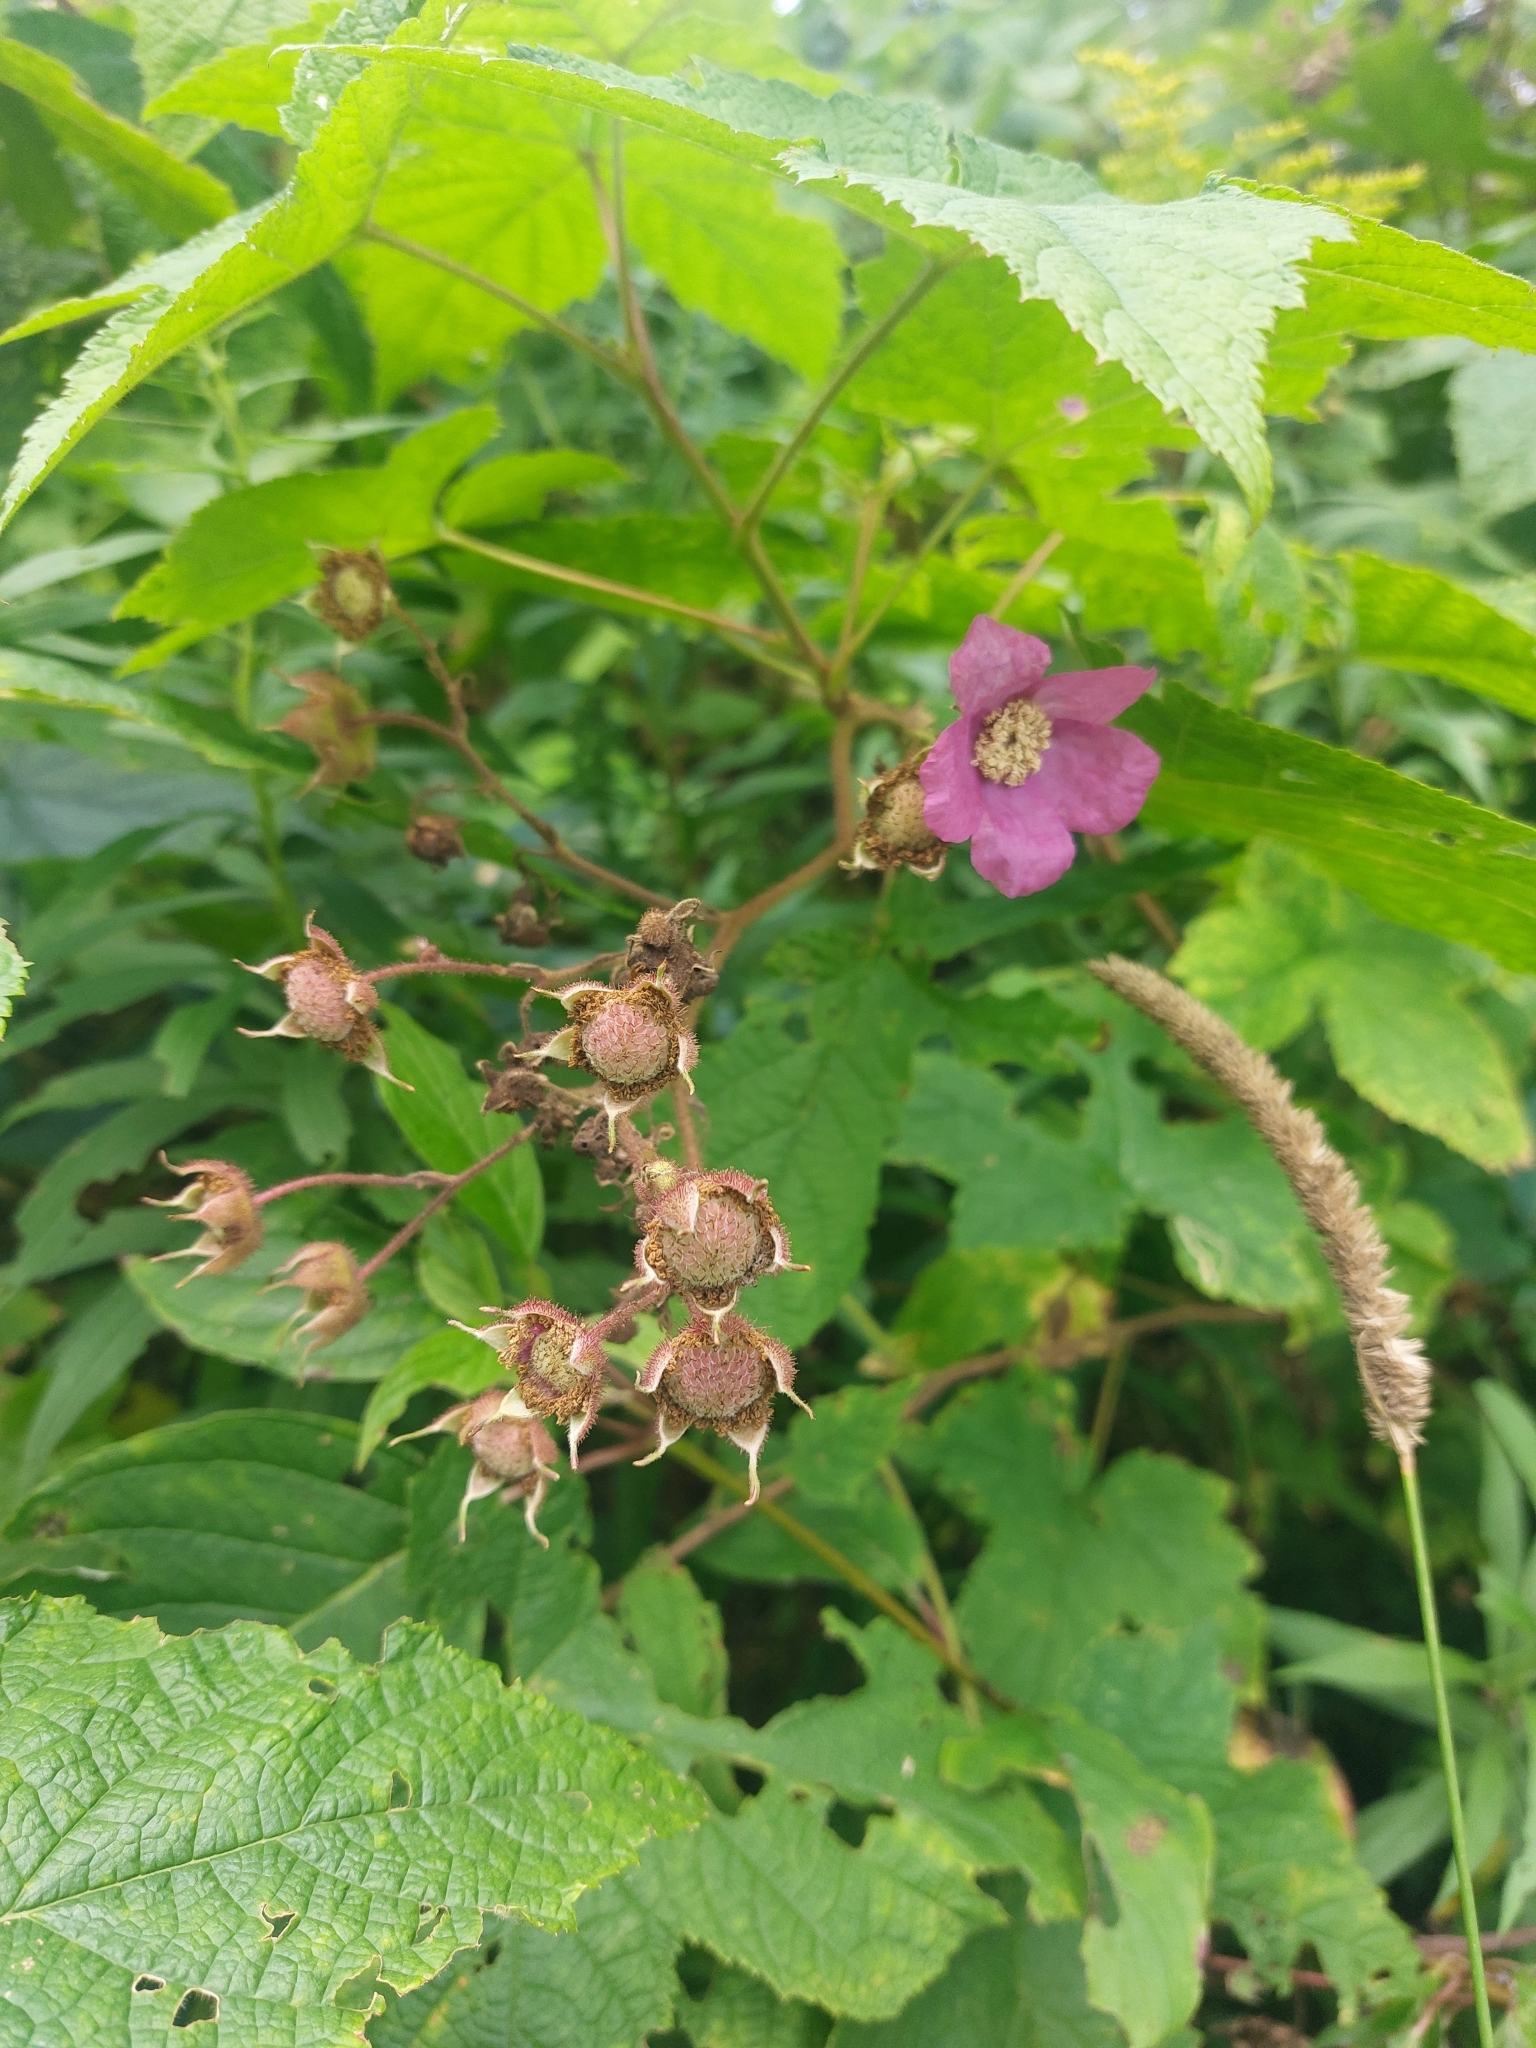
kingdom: Plantae
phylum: Tracheophyta
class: Magnoliopsida
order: Rosales
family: Rosaceae
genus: Rubus
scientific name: Rubus odoratus
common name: Purple-flowered raspberry
